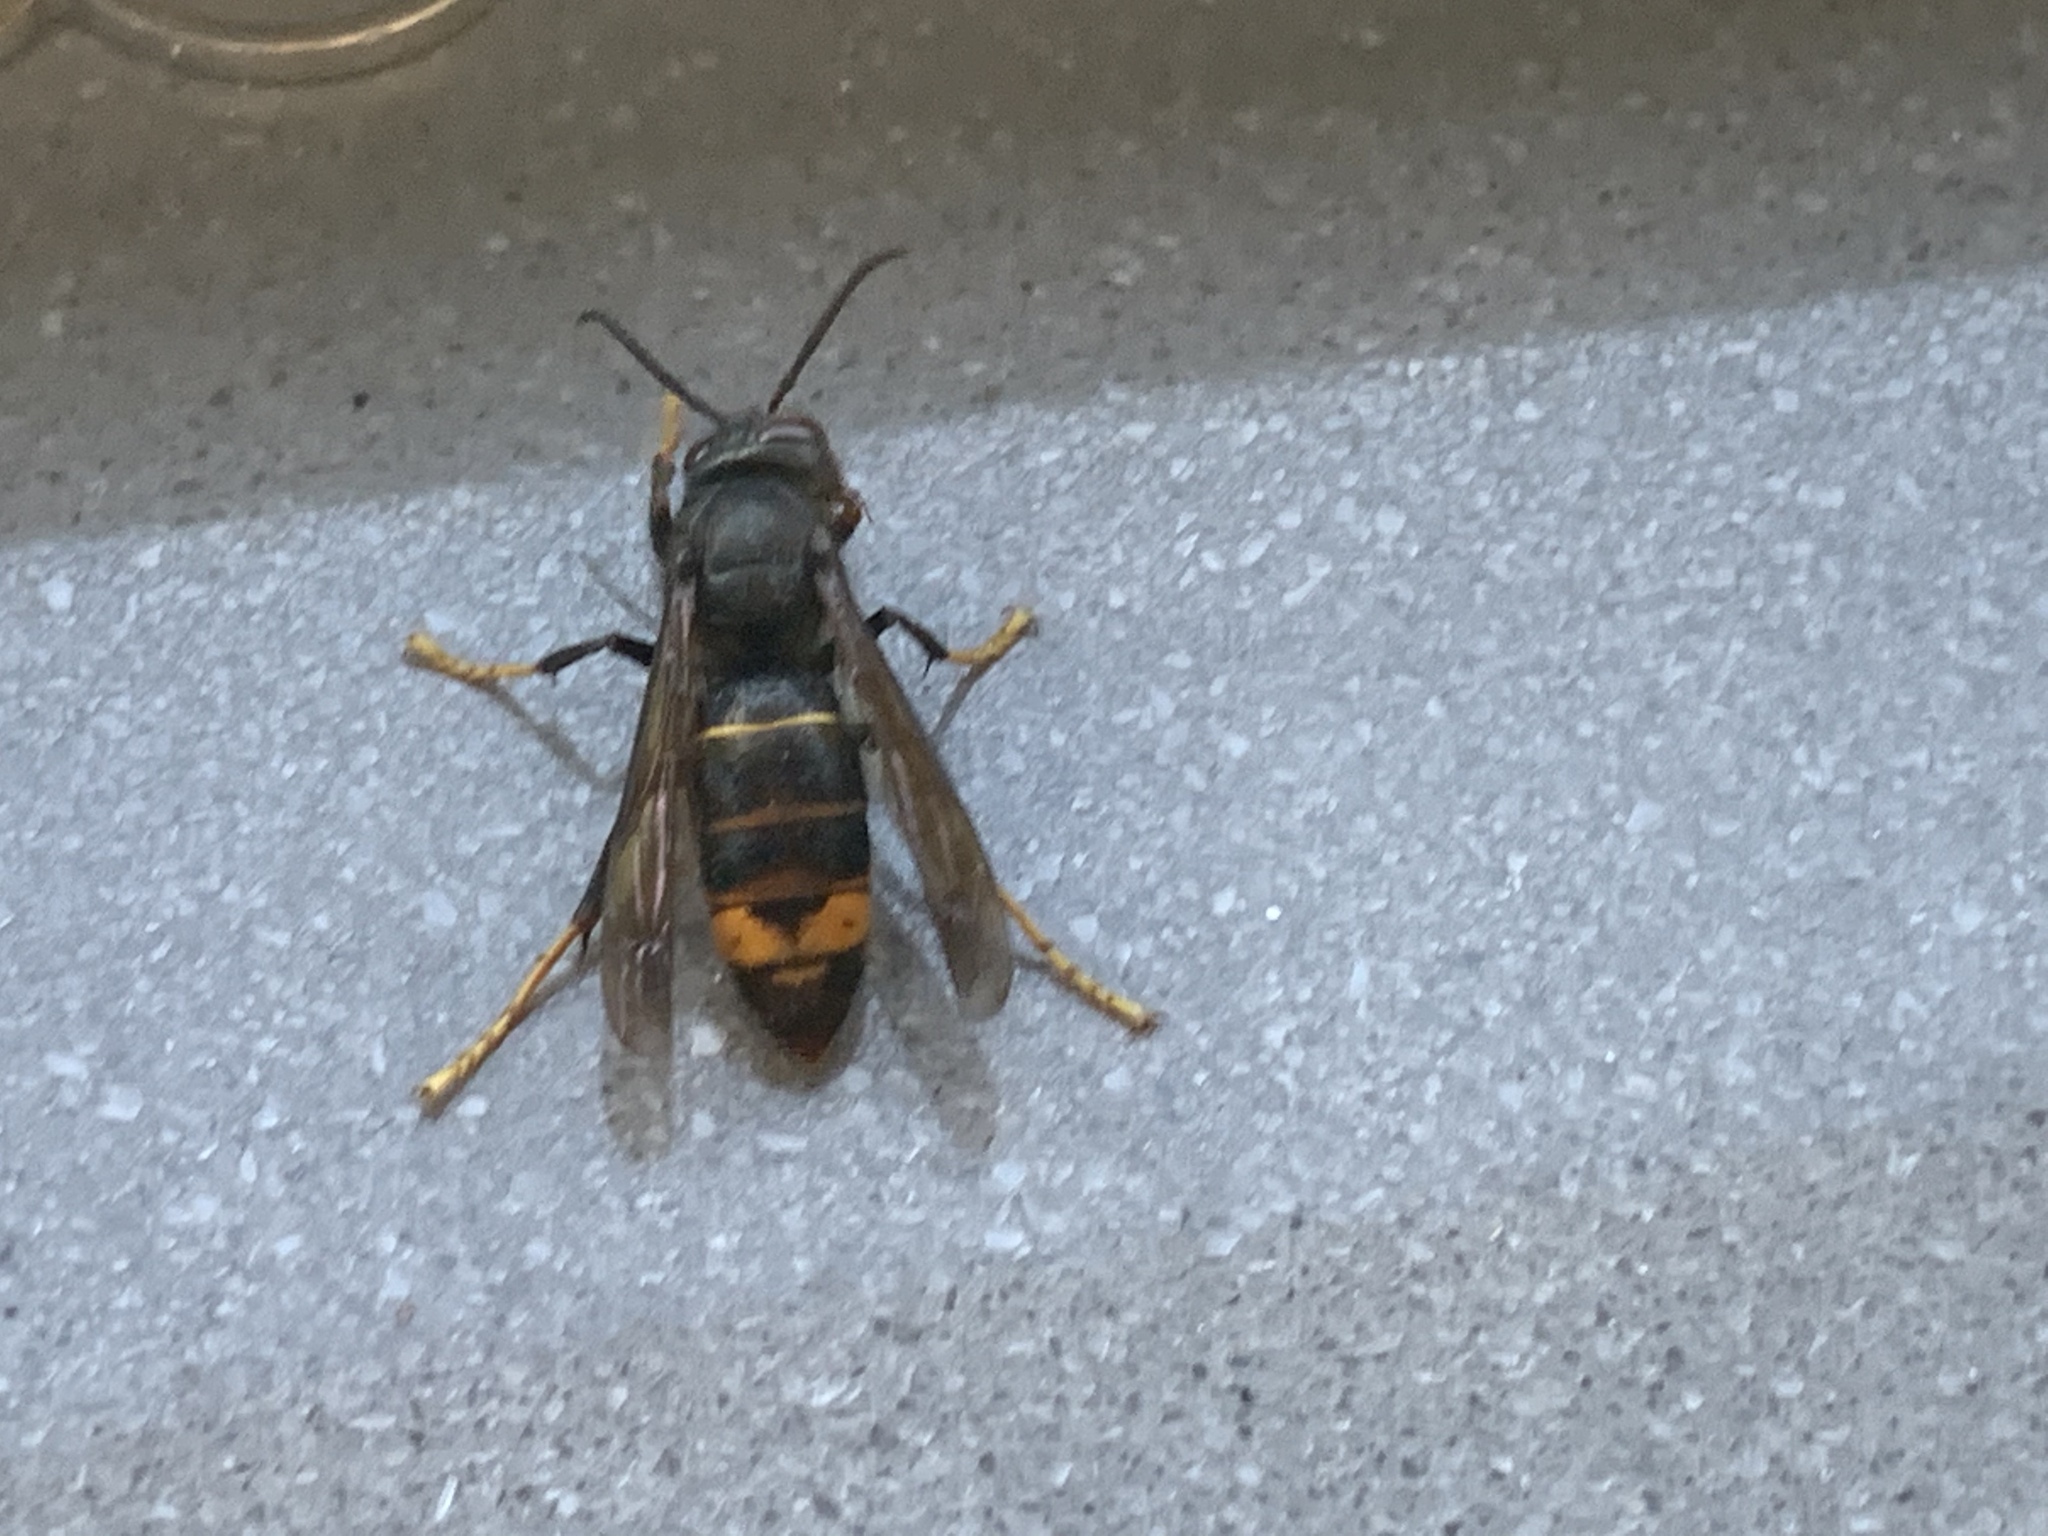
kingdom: Animalia
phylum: Arthropoda
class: Insecta
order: Hymenoptera
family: Vespidae
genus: Vespa
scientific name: Vespa velutina
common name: Asian hornet
